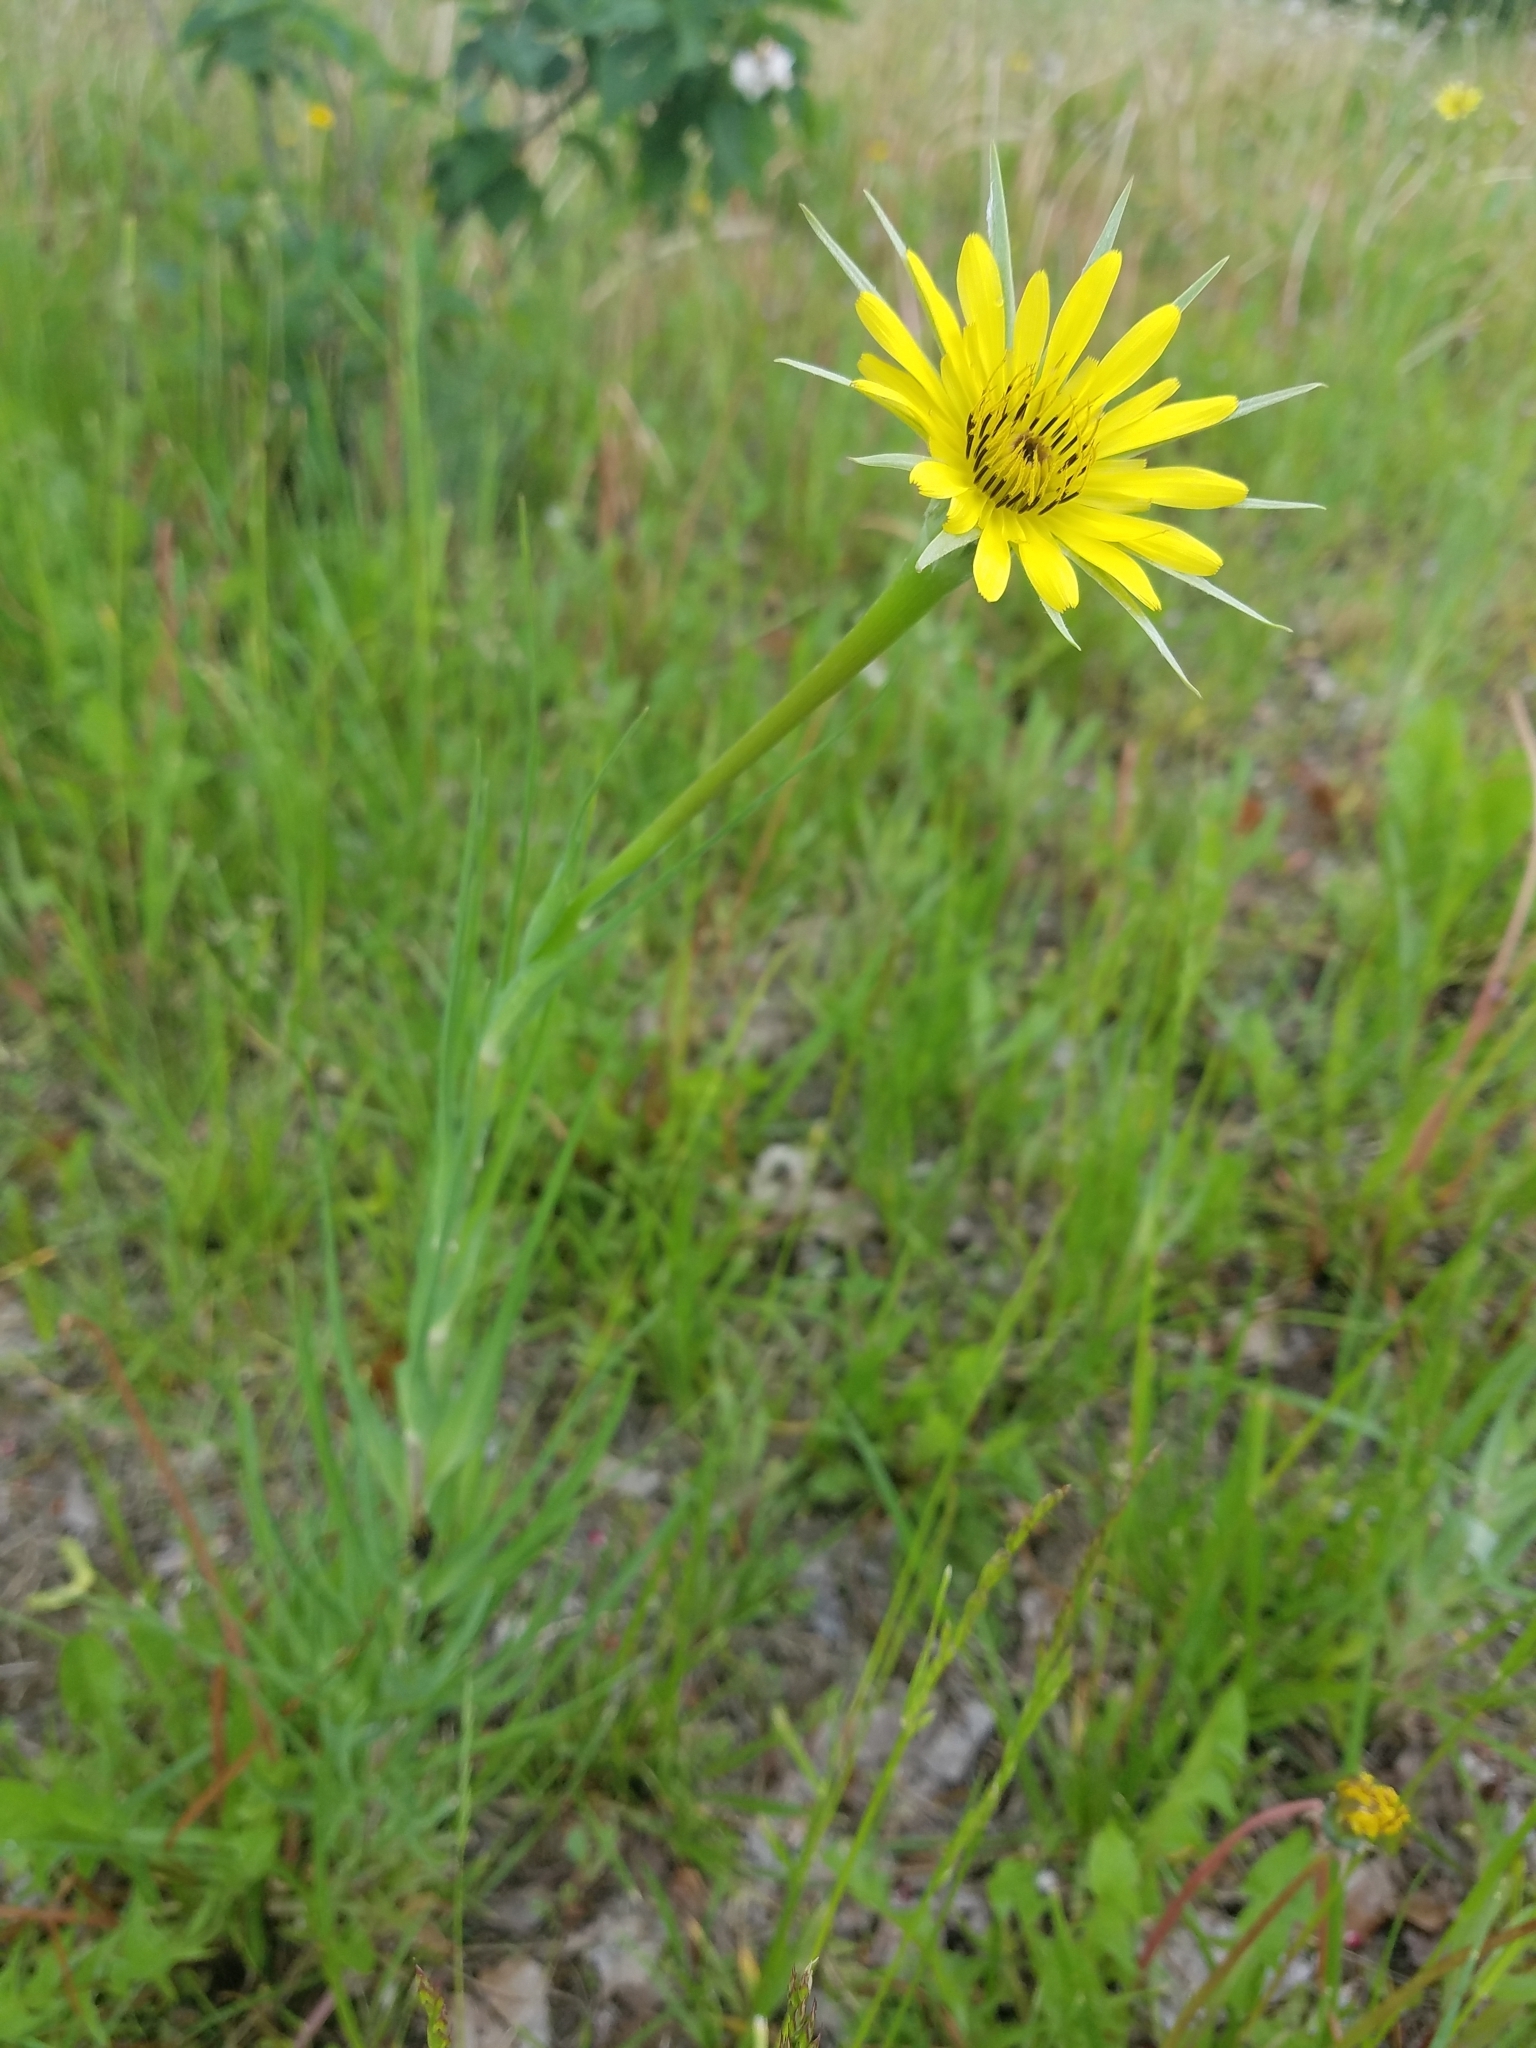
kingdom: Plantae
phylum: Tracheophyta
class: Magnoliopsida
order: Asterales
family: Asteraceae
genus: Tragopogon
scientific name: Tragopogon dubius
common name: Yellow salsify
